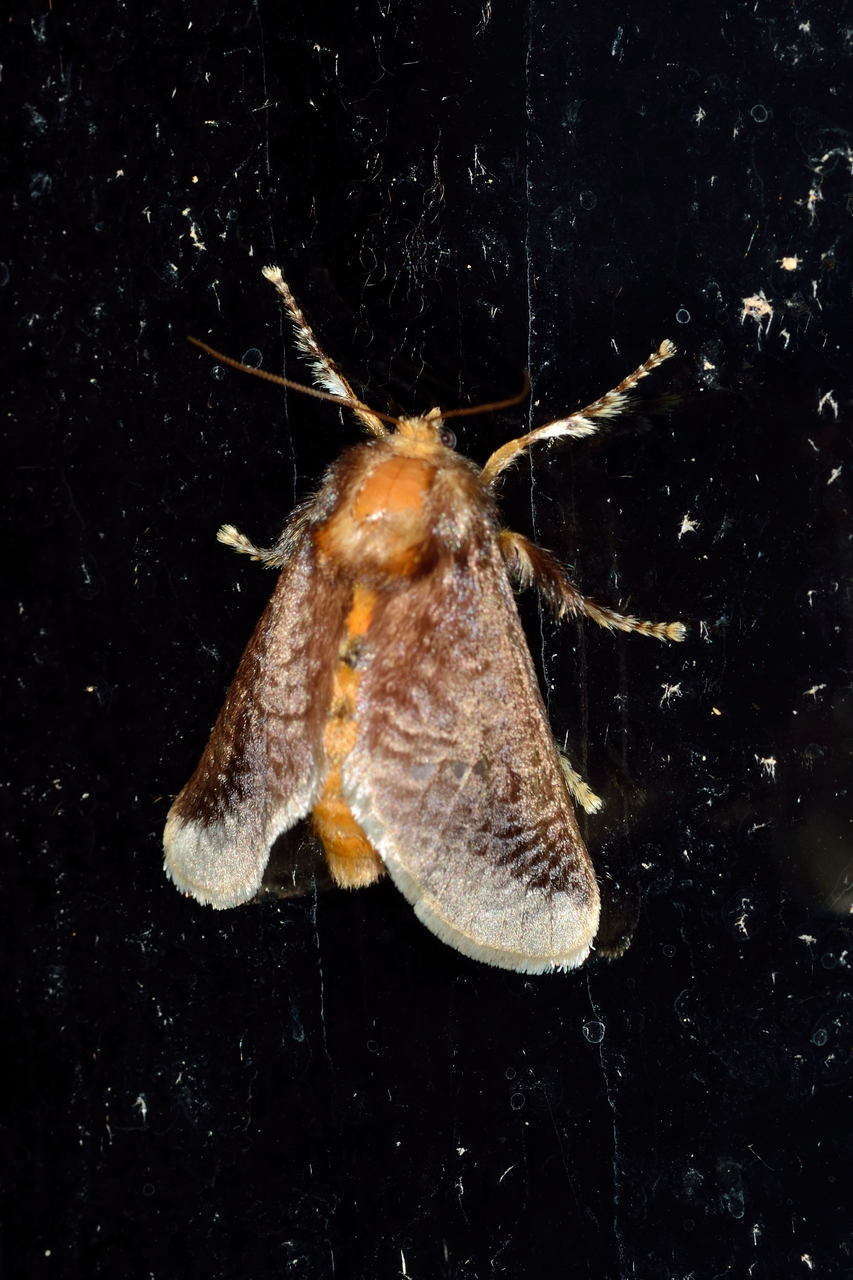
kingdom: Animalia
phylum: Arthropoda
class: Insecta
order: Lepidoptera
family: Limacodidae
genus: Doratifera
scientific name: Doratifera oxleyi
